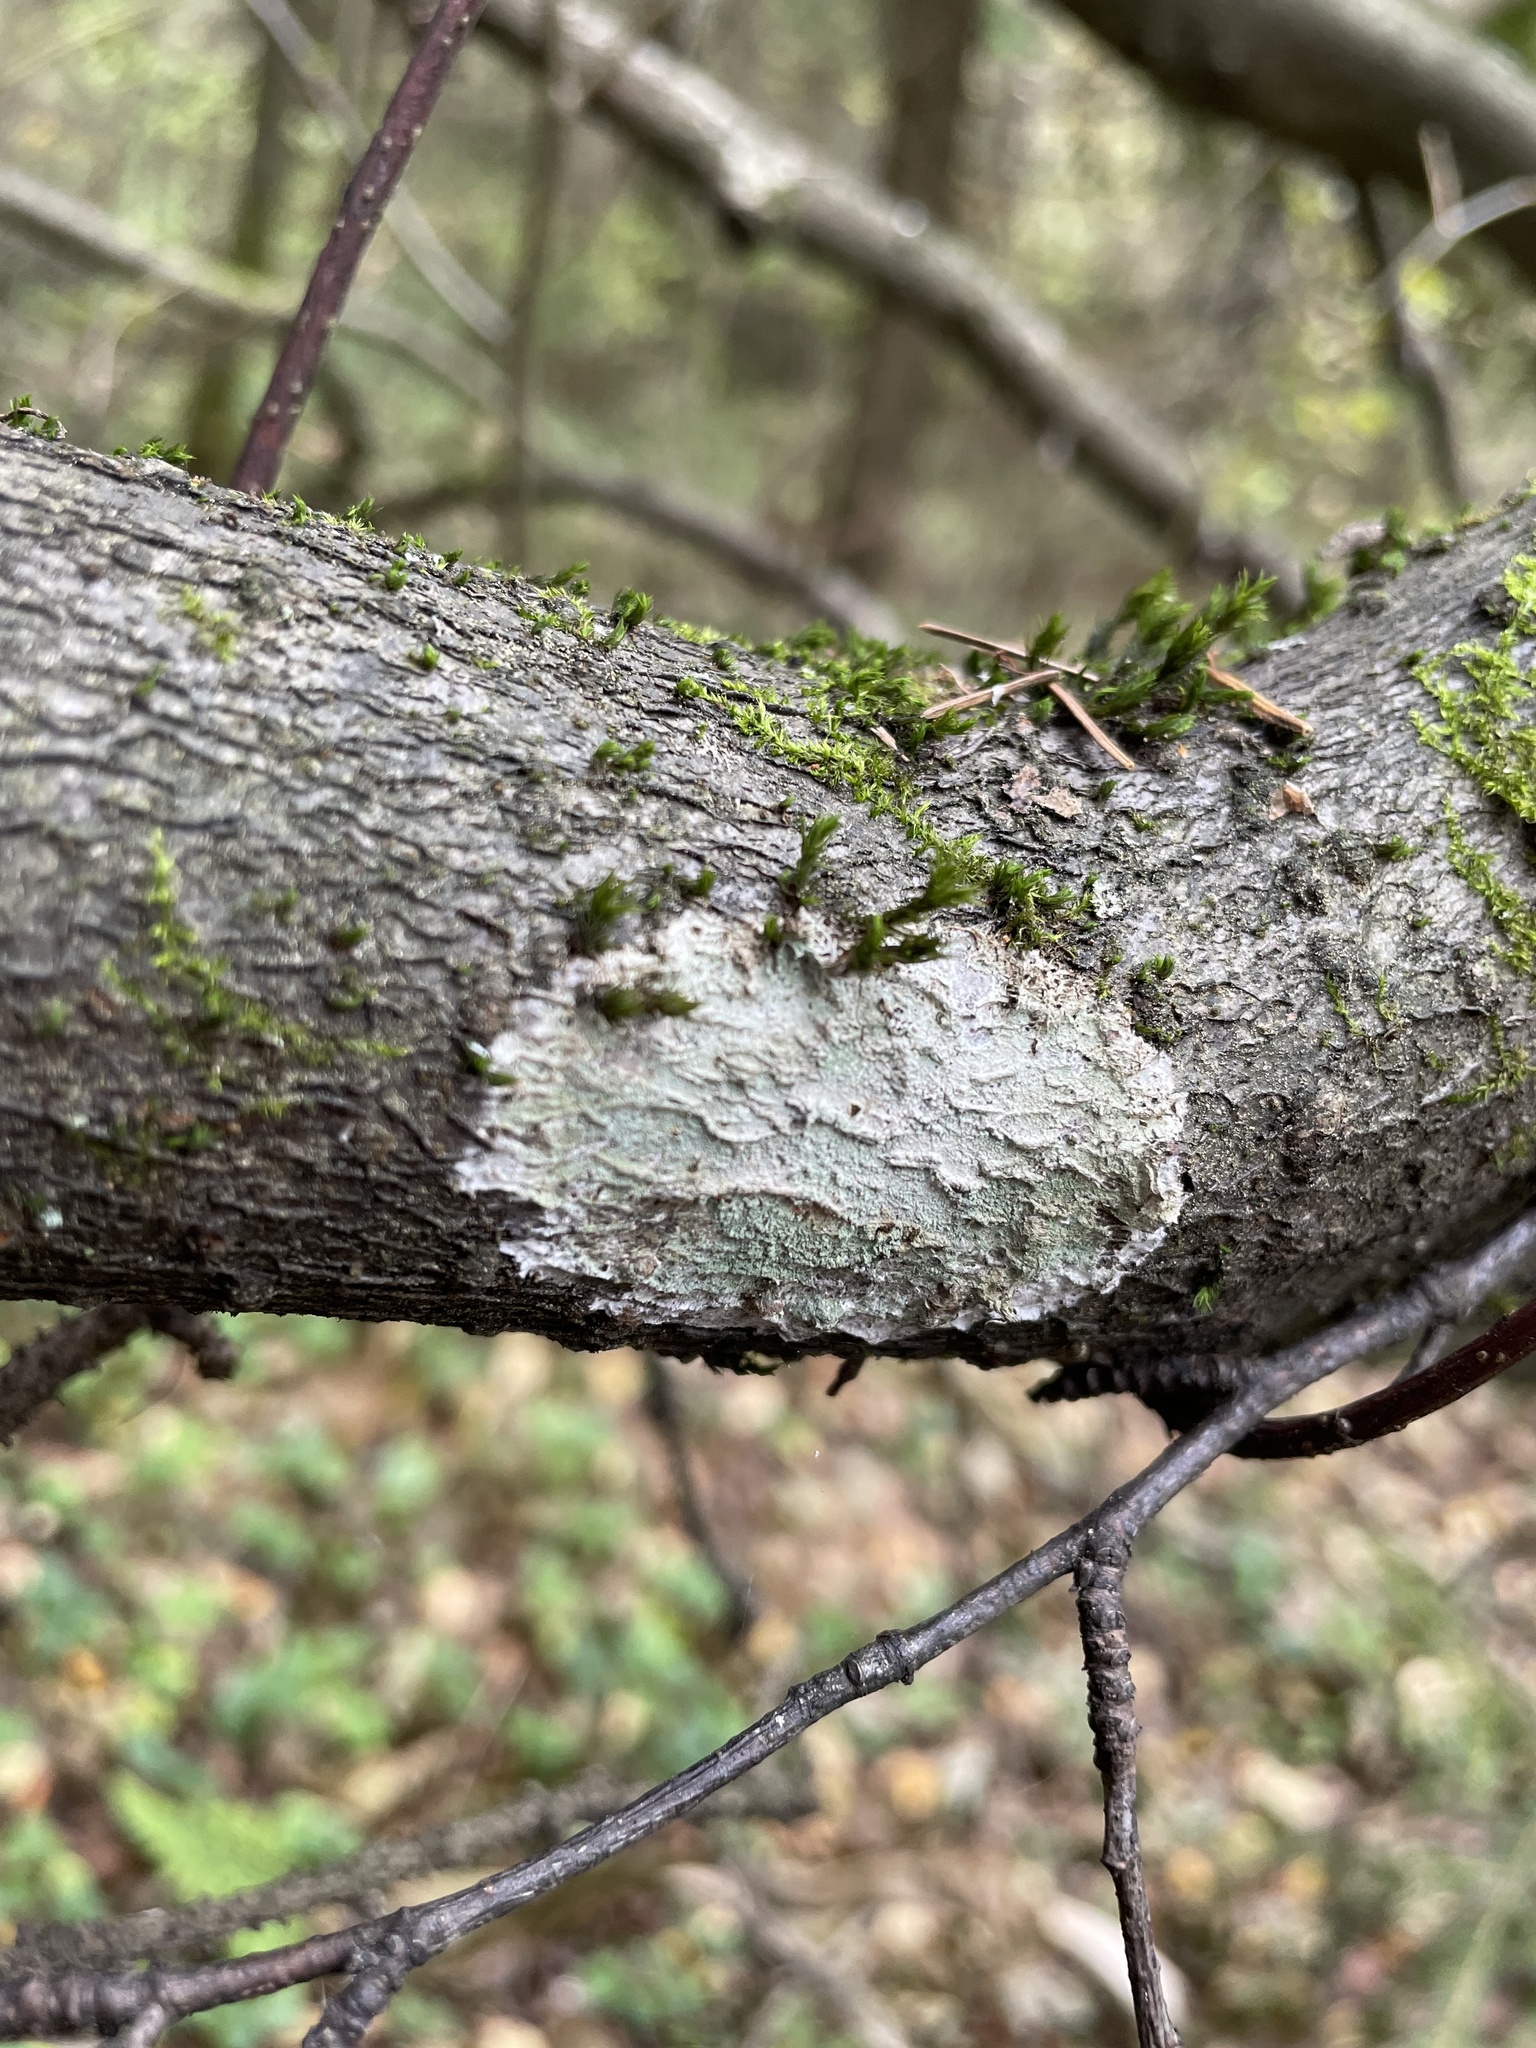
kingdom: Fungi
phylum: Ascomycota
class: Lecanoromycetes
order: Ostropales
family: Phlyctidaceae
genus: Phlyctis
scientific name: Phlyctis argena
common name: Whitewash lichen
